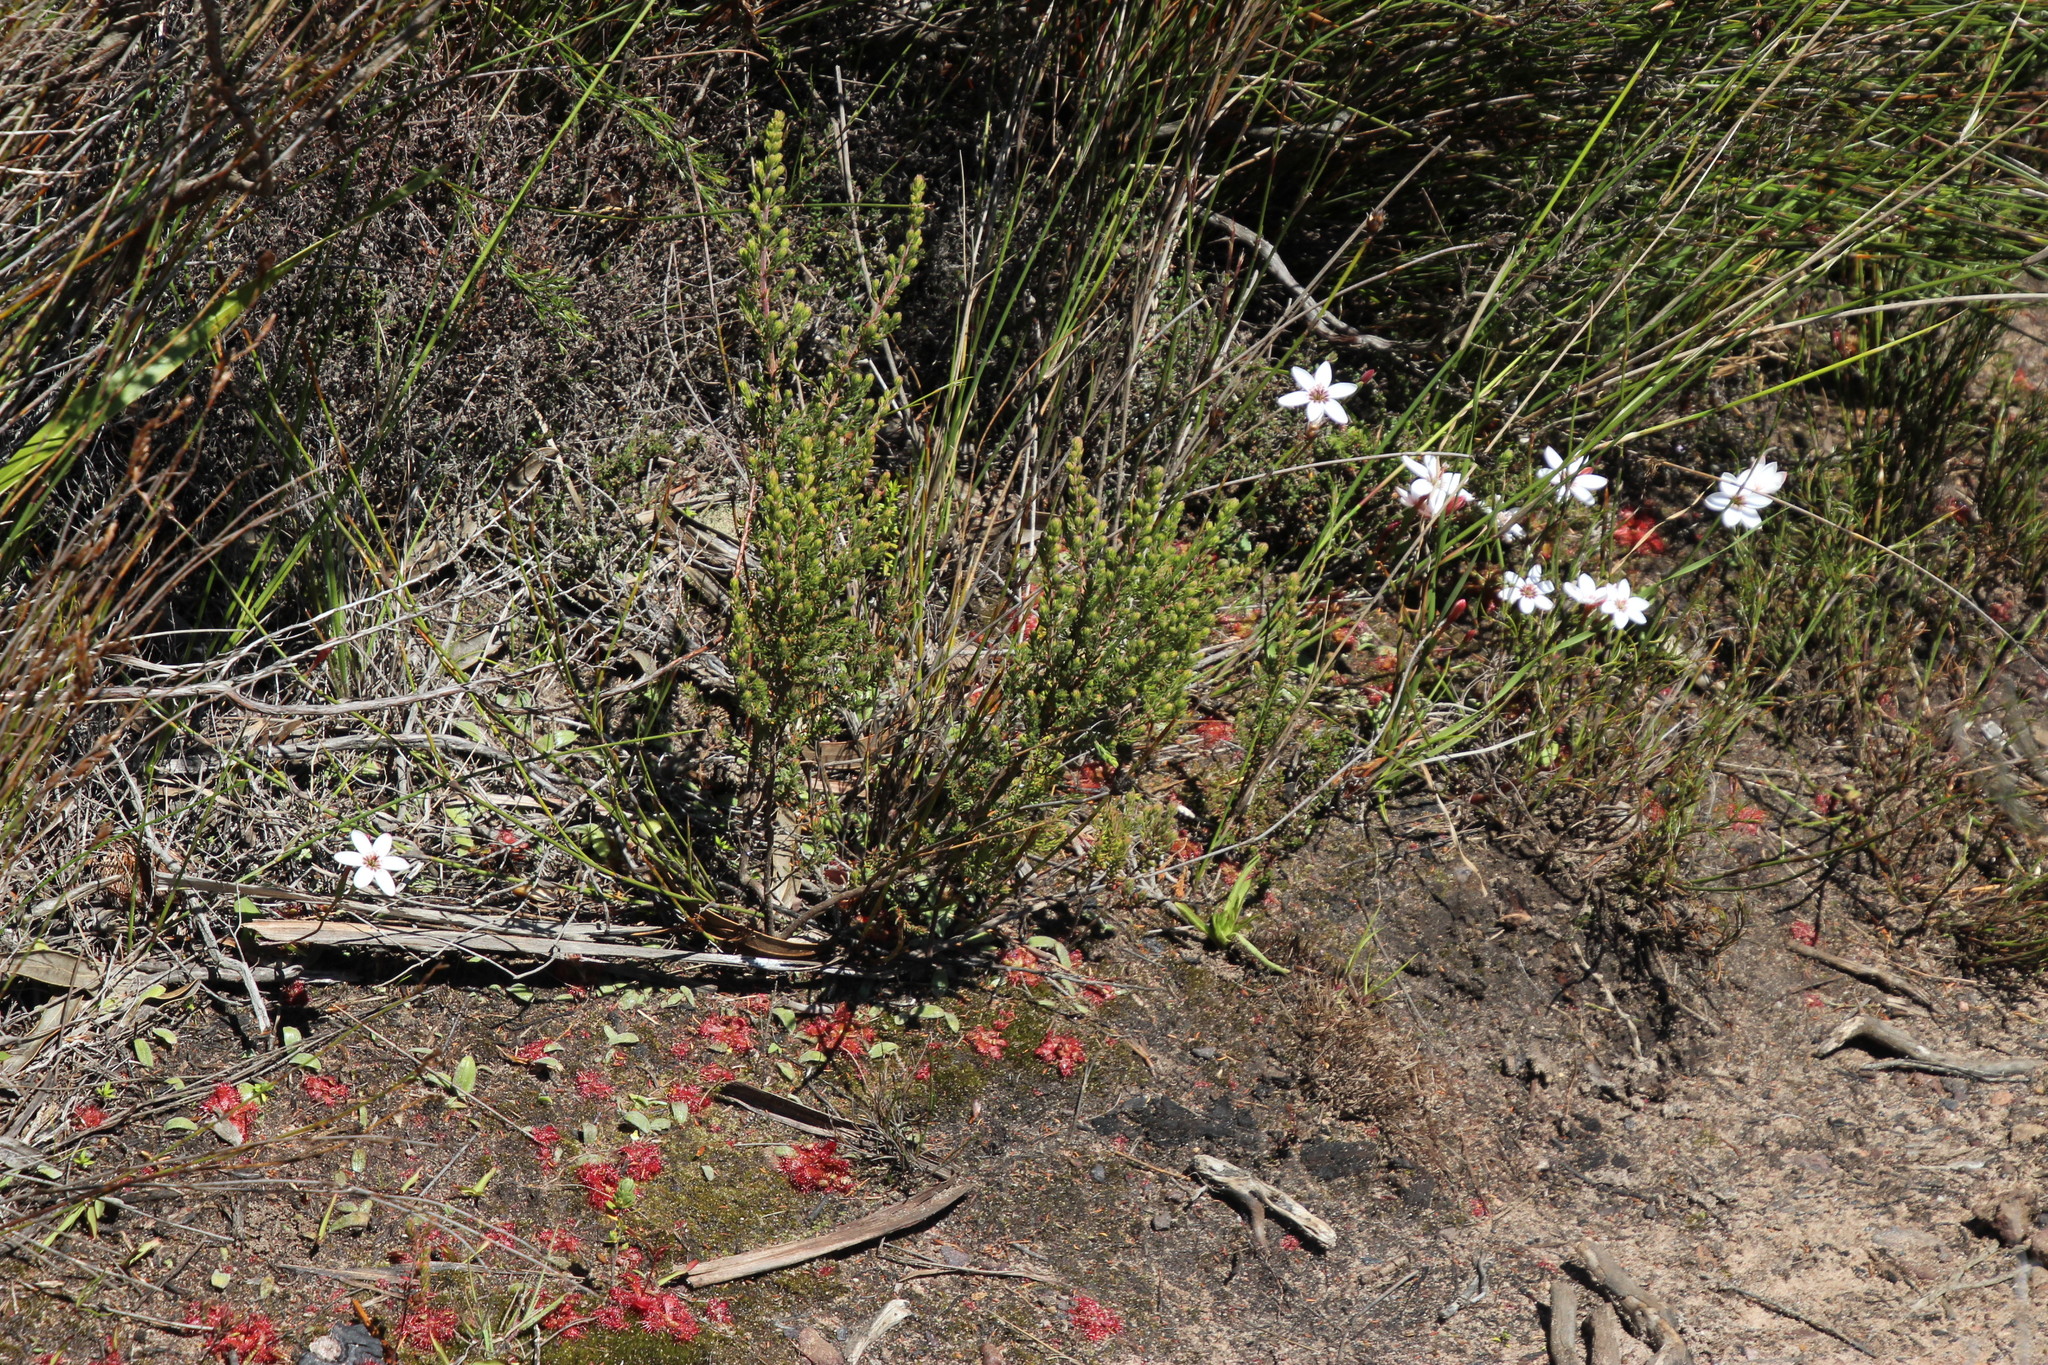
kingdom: Plantae
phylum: Tracheophyta
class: Liliopsida
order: Asparagales
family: Iridaceae
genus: Geissorhiza
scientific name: Geissorhiza ovata
